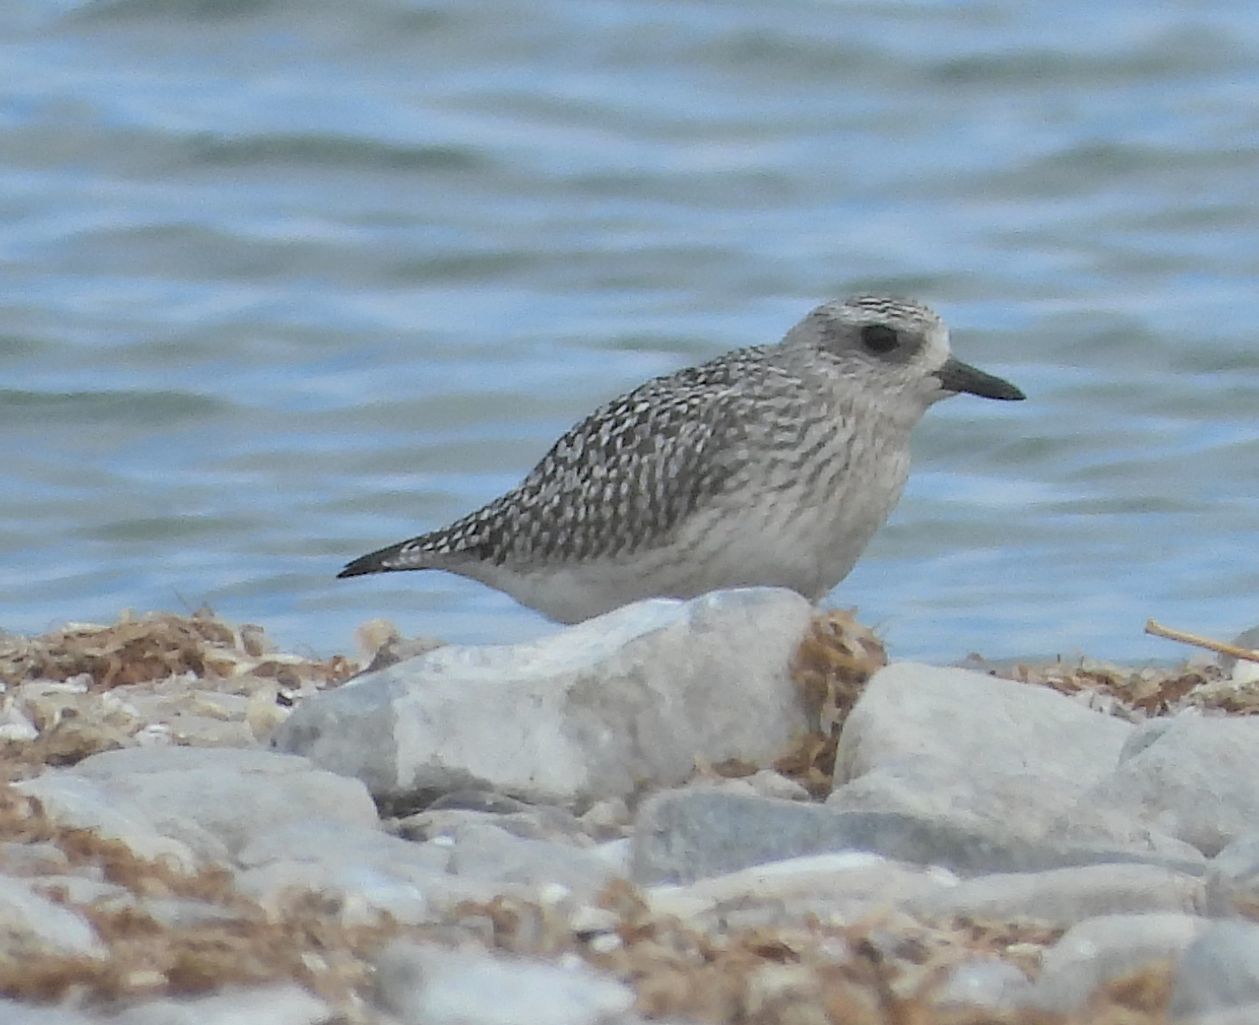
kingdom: Animalia
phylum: Chordata
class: Aves
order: Charadriiformes
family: Charadriidae
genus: Pluvialis
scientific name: Pluvialis squatarola
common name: Grey plover
